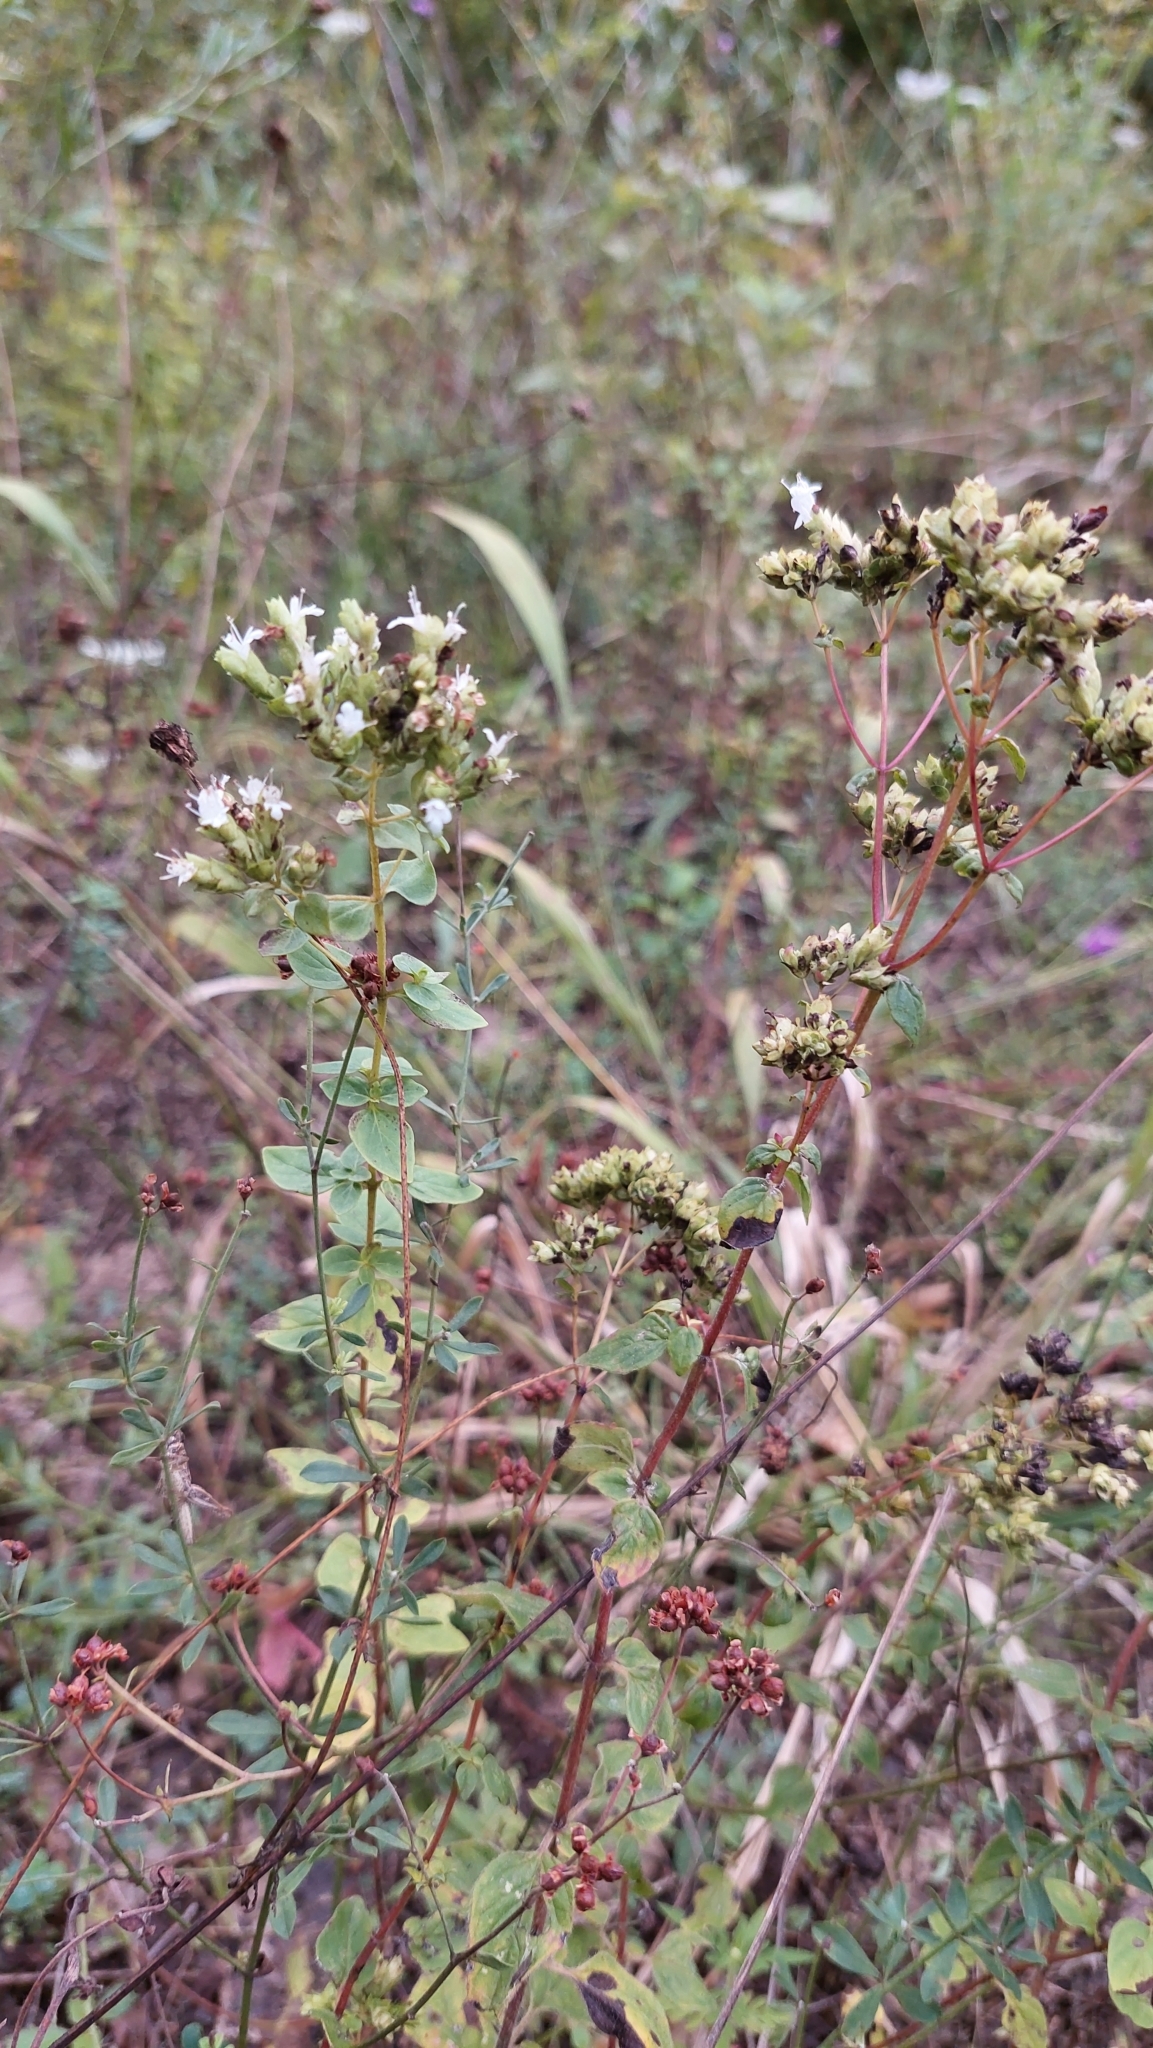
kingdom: Plantae
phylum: Tracheophyta
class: Magnoliopsida
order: Lamiales
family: Lamiaceae
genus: Origanum
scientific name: Origanum vulgare
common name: Wild marjoram
